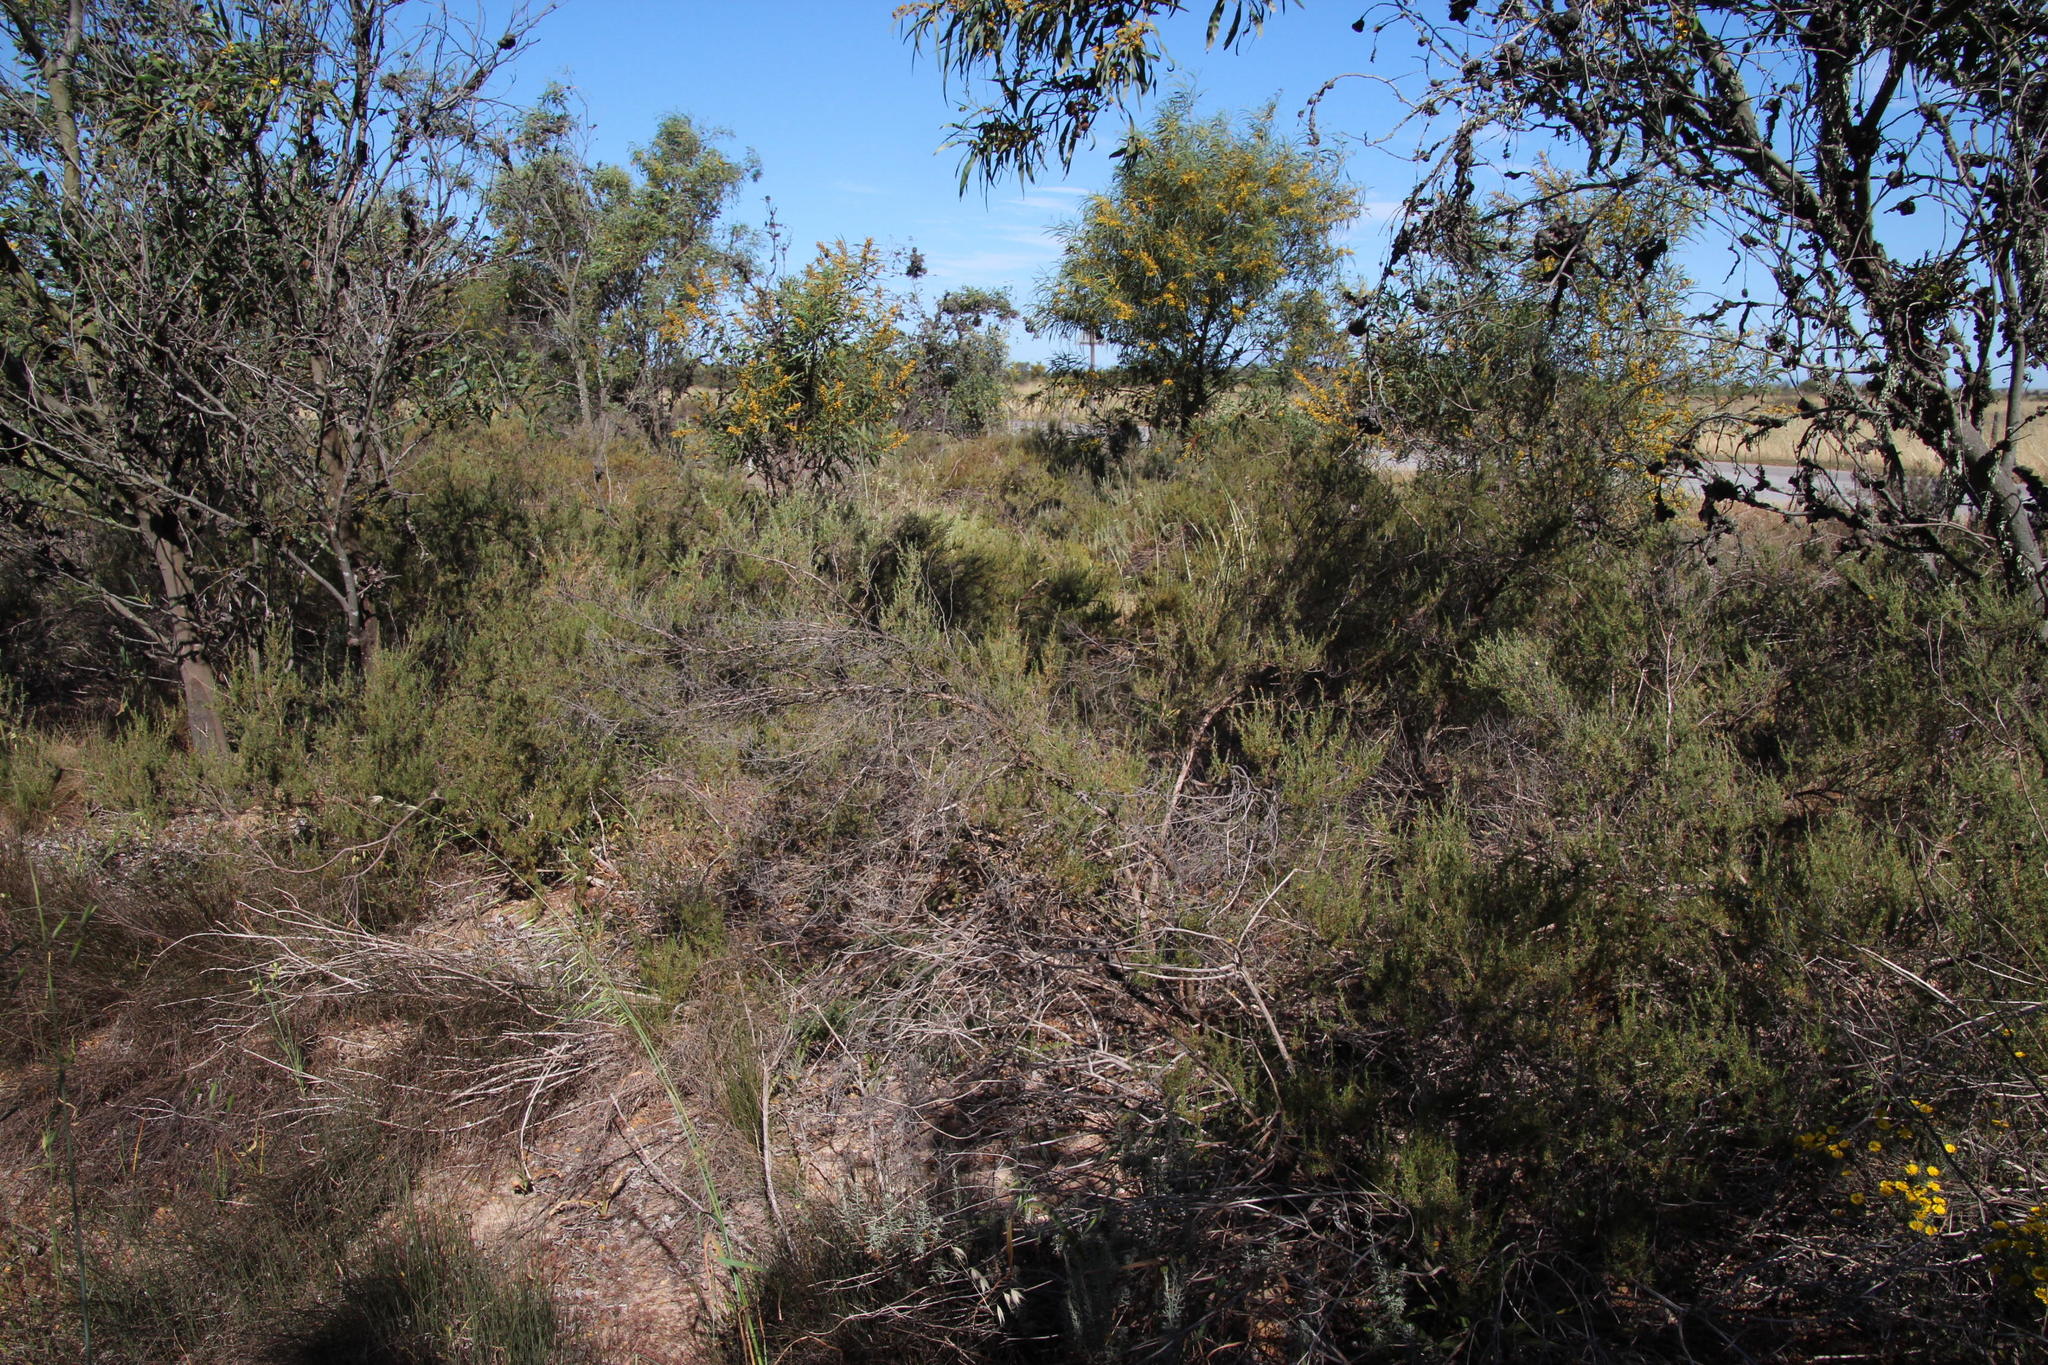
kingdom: Plantae
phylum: Tracheophyta
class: Magnoliopsida
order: Rosales
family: Rosaceae
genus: Cliffortia
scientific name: Cliffortia juniperina
